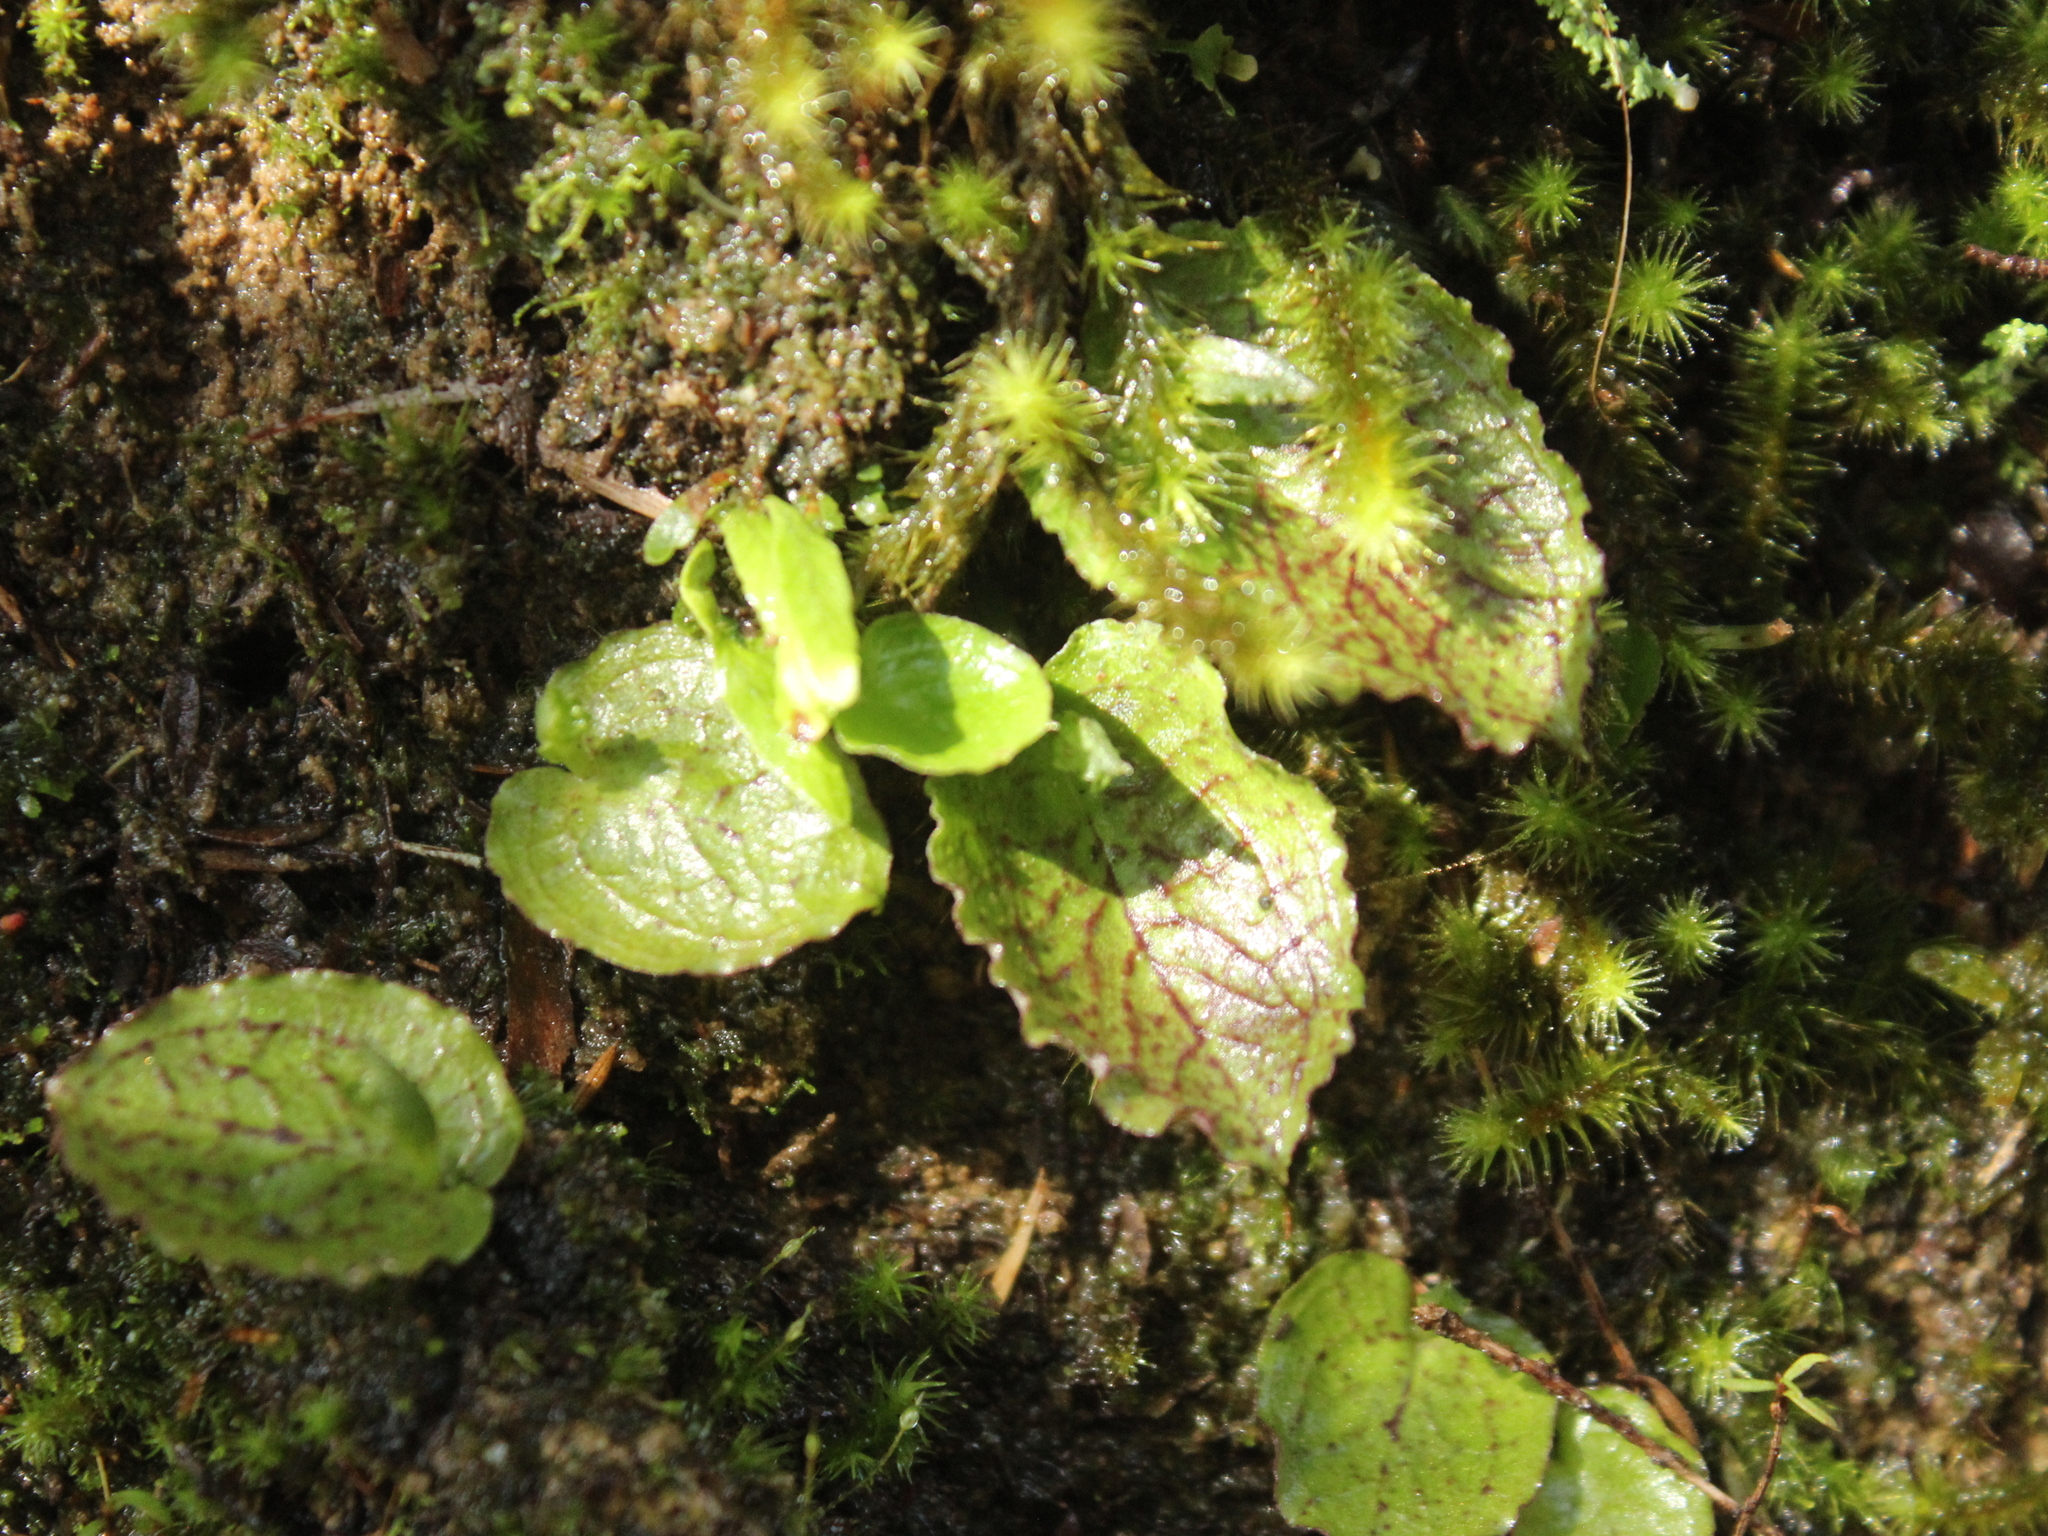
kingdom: Plantae
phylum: Tracheophyta
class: Liliopsida
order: Asparagales
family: Orchidaceae
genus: Corybas
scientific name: Corybas oblongus
